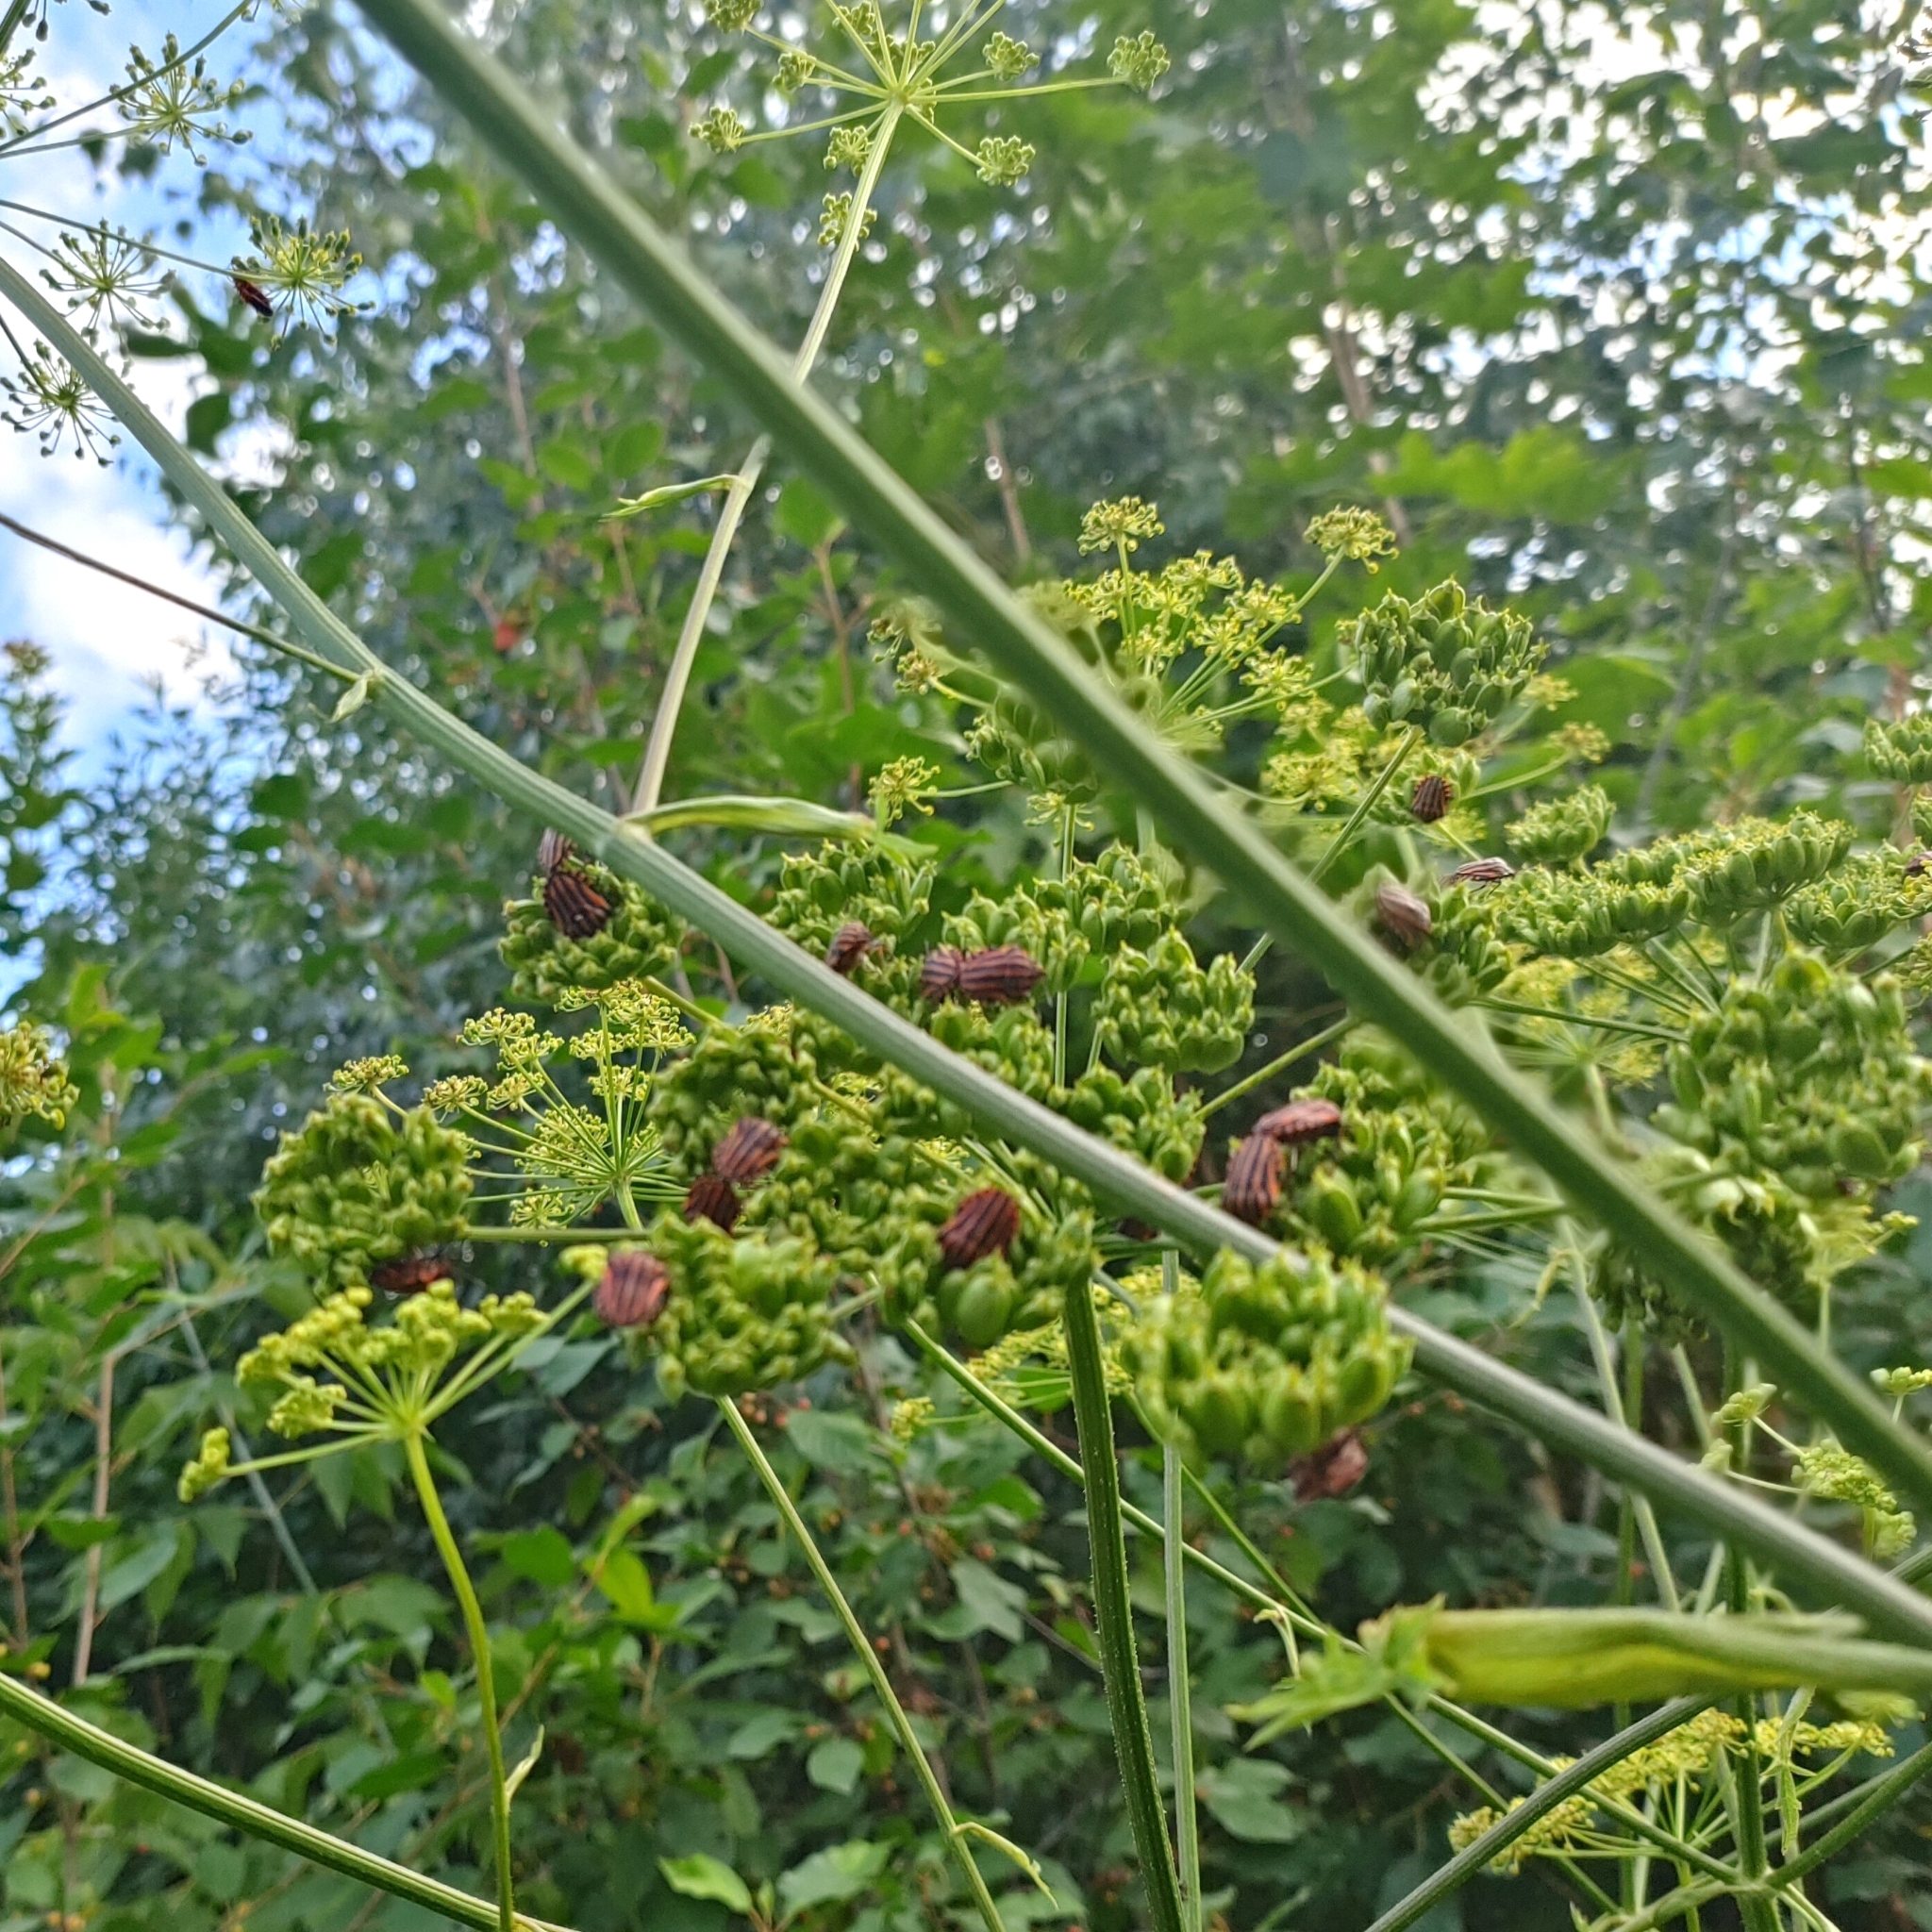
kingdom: Animalia
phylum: Arthropoda
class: Insecta
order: Hemiptera
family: Pentatomidae
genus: Graphosoma
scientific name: Graphosoma italicum
